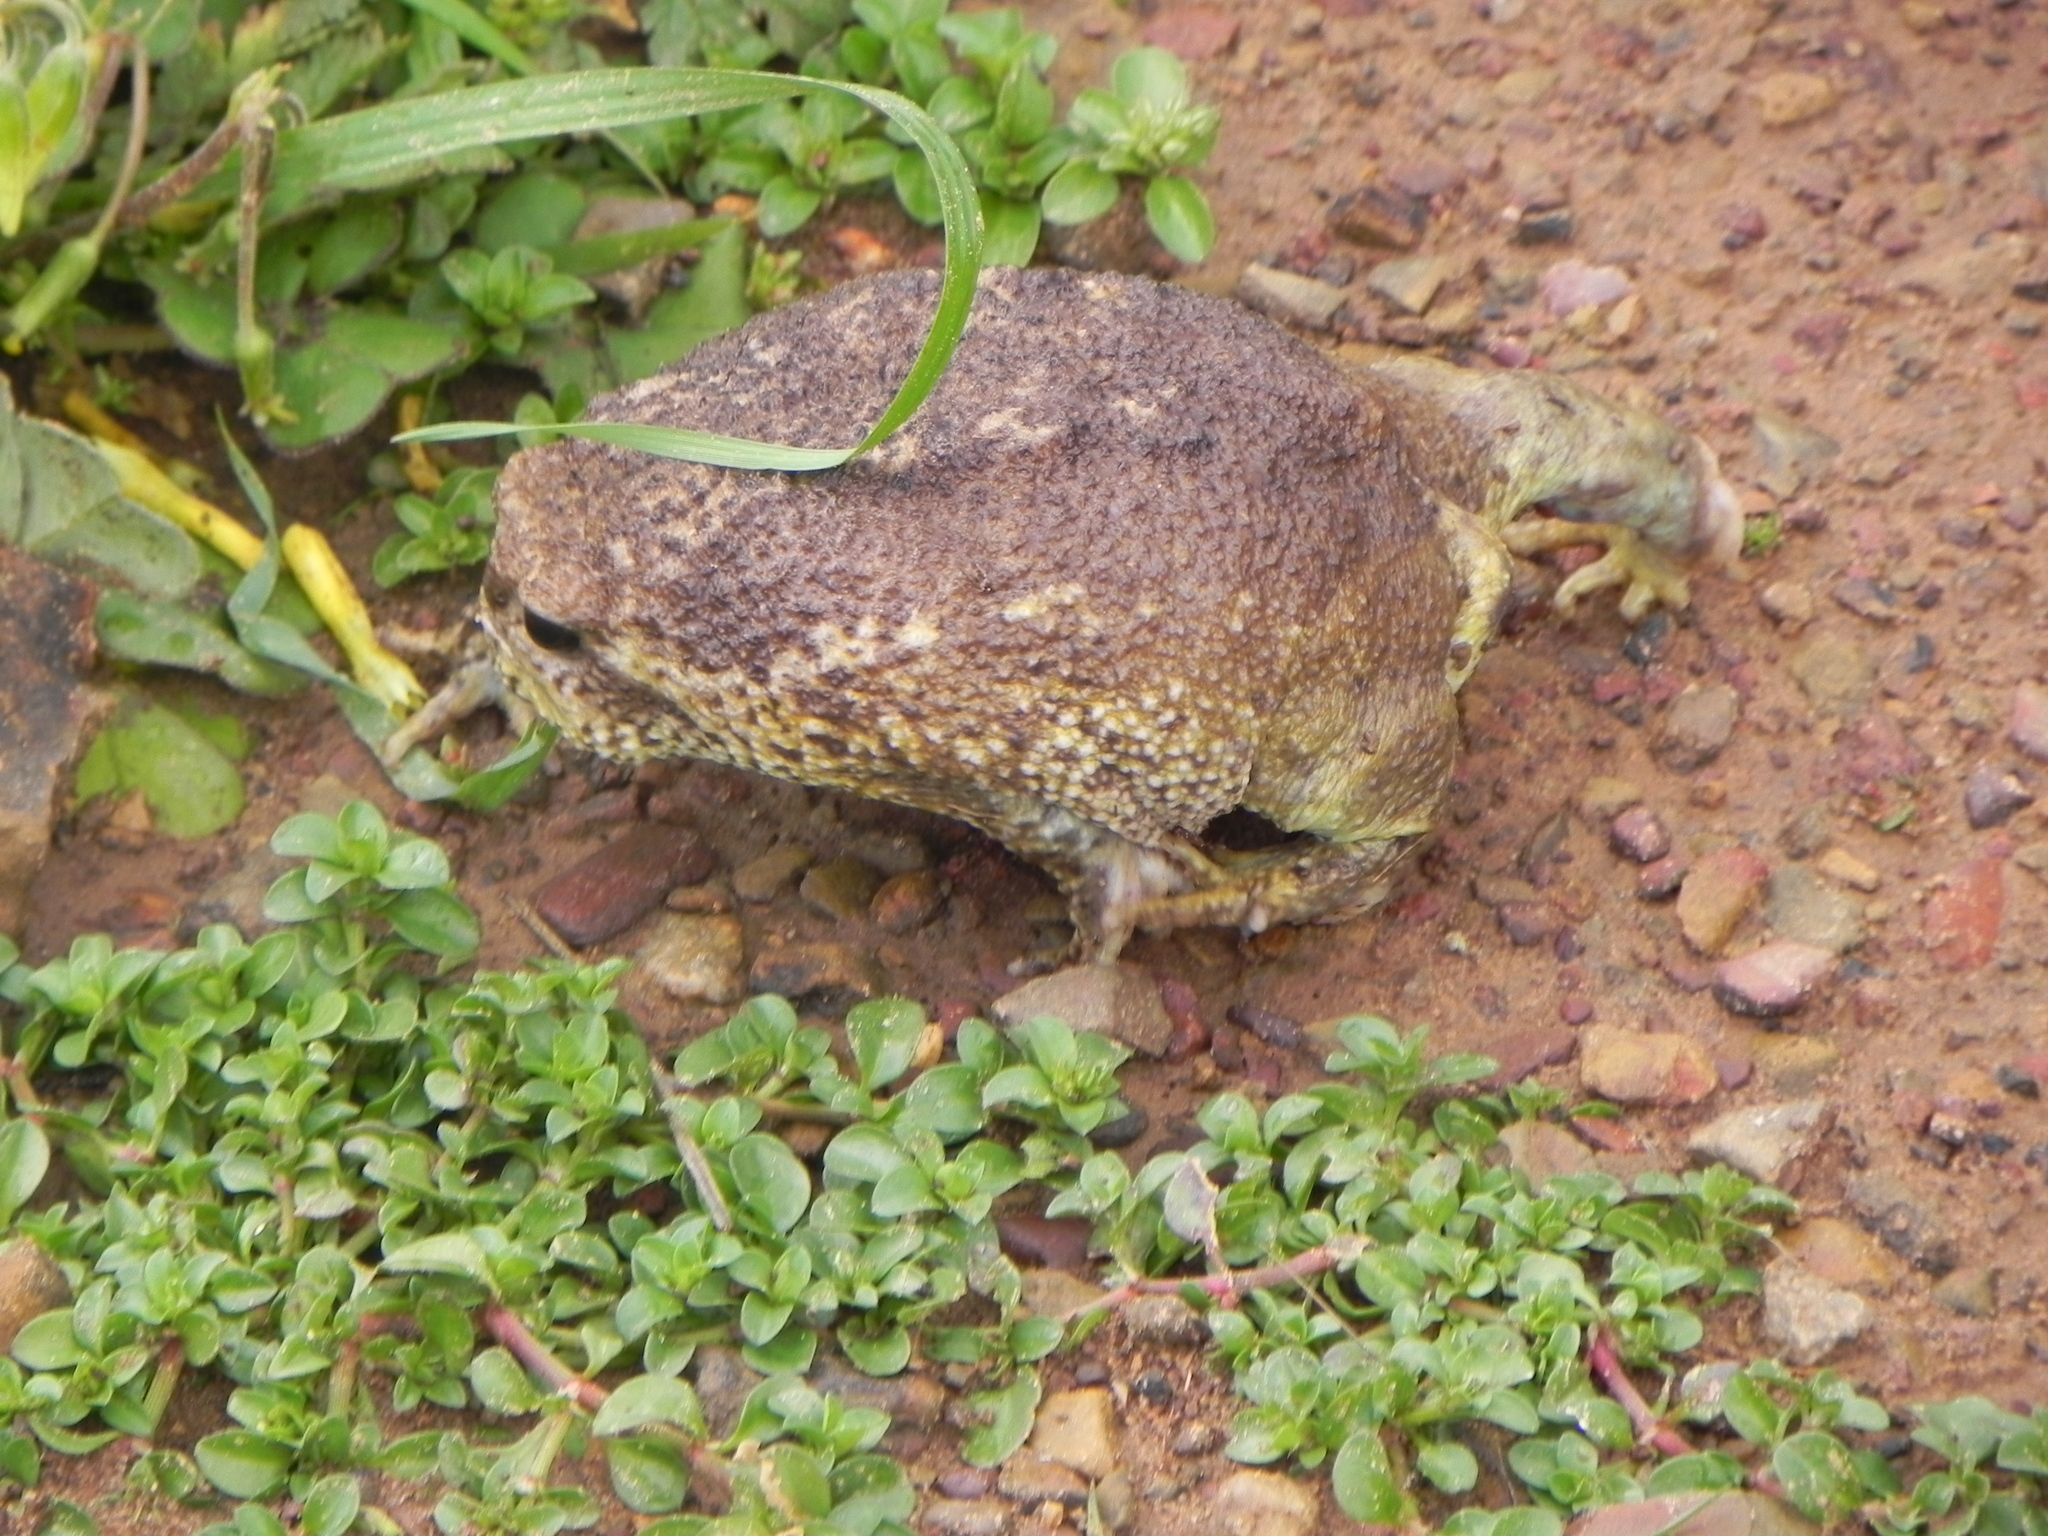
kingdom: Animalia
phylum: Chordata
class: Amphibia
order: Anura
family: Brevicipitidae
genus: Breviceps
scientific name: Breviceps gibbosus
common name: Cape rain frog
